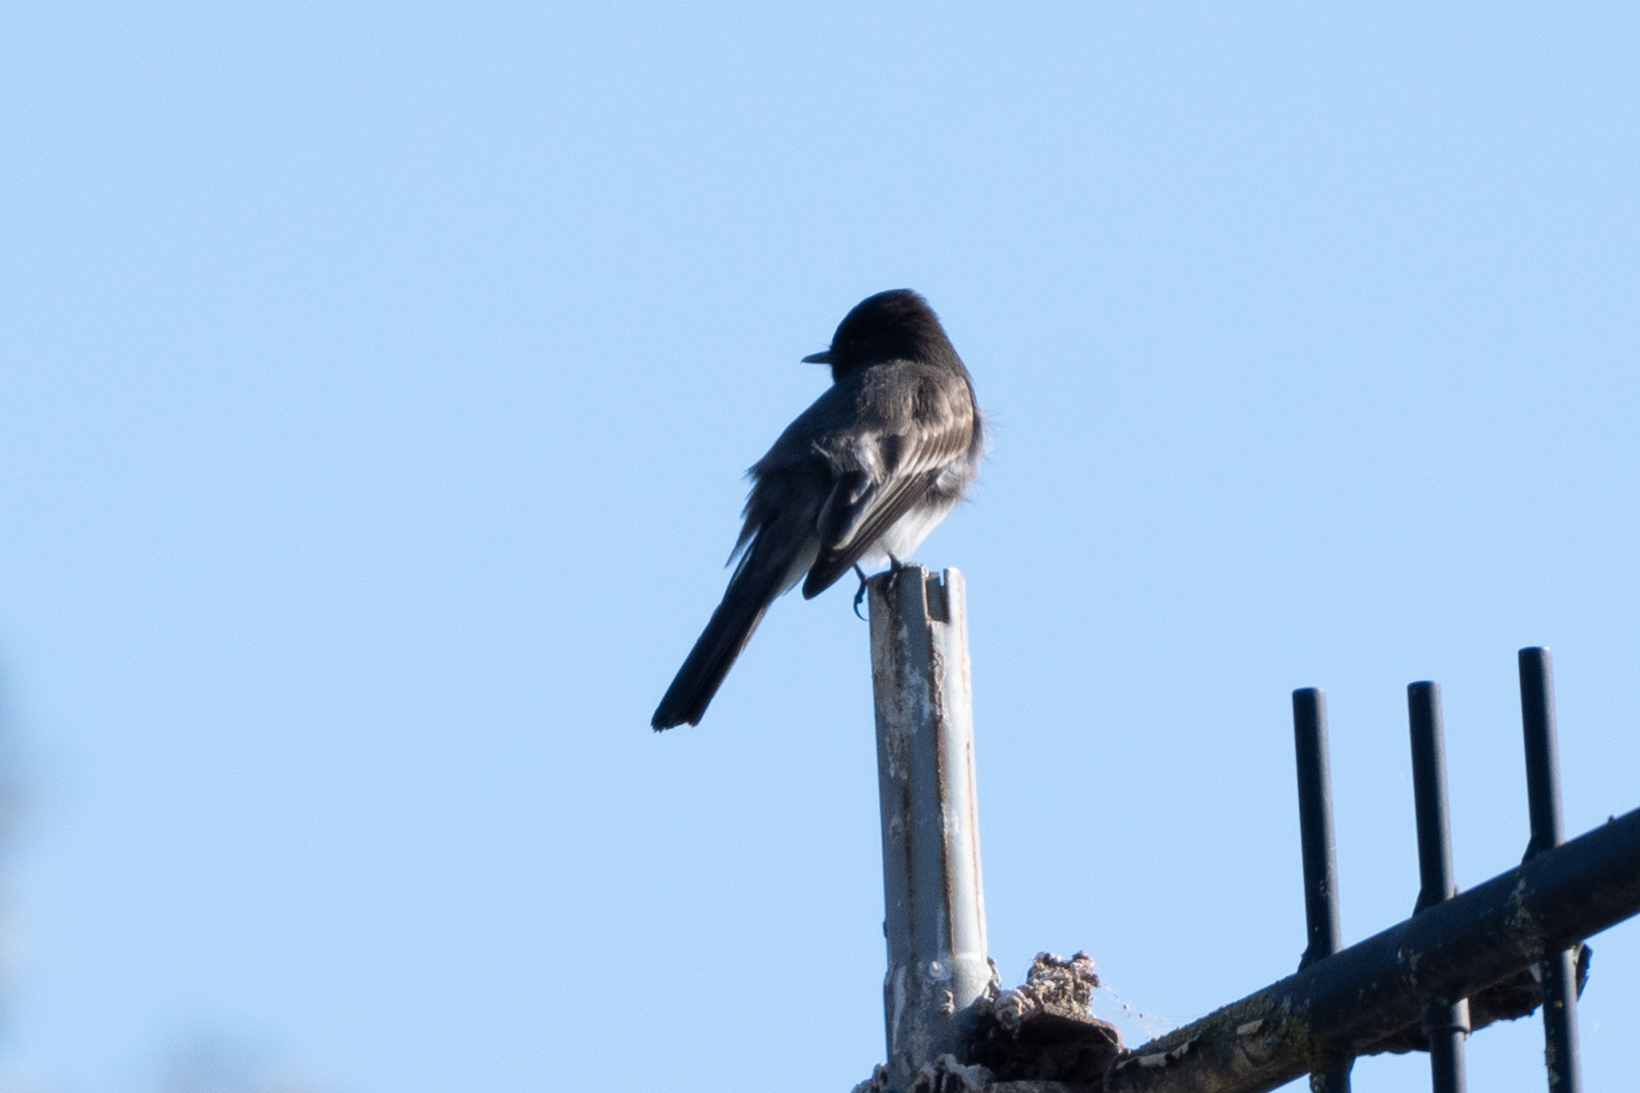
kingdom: Animalia
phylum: Chordata
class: Aves
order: Passeriformes
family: Tyrannidae
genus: Sayornis
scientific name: Sayornis nigricans
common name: Black phoebe
